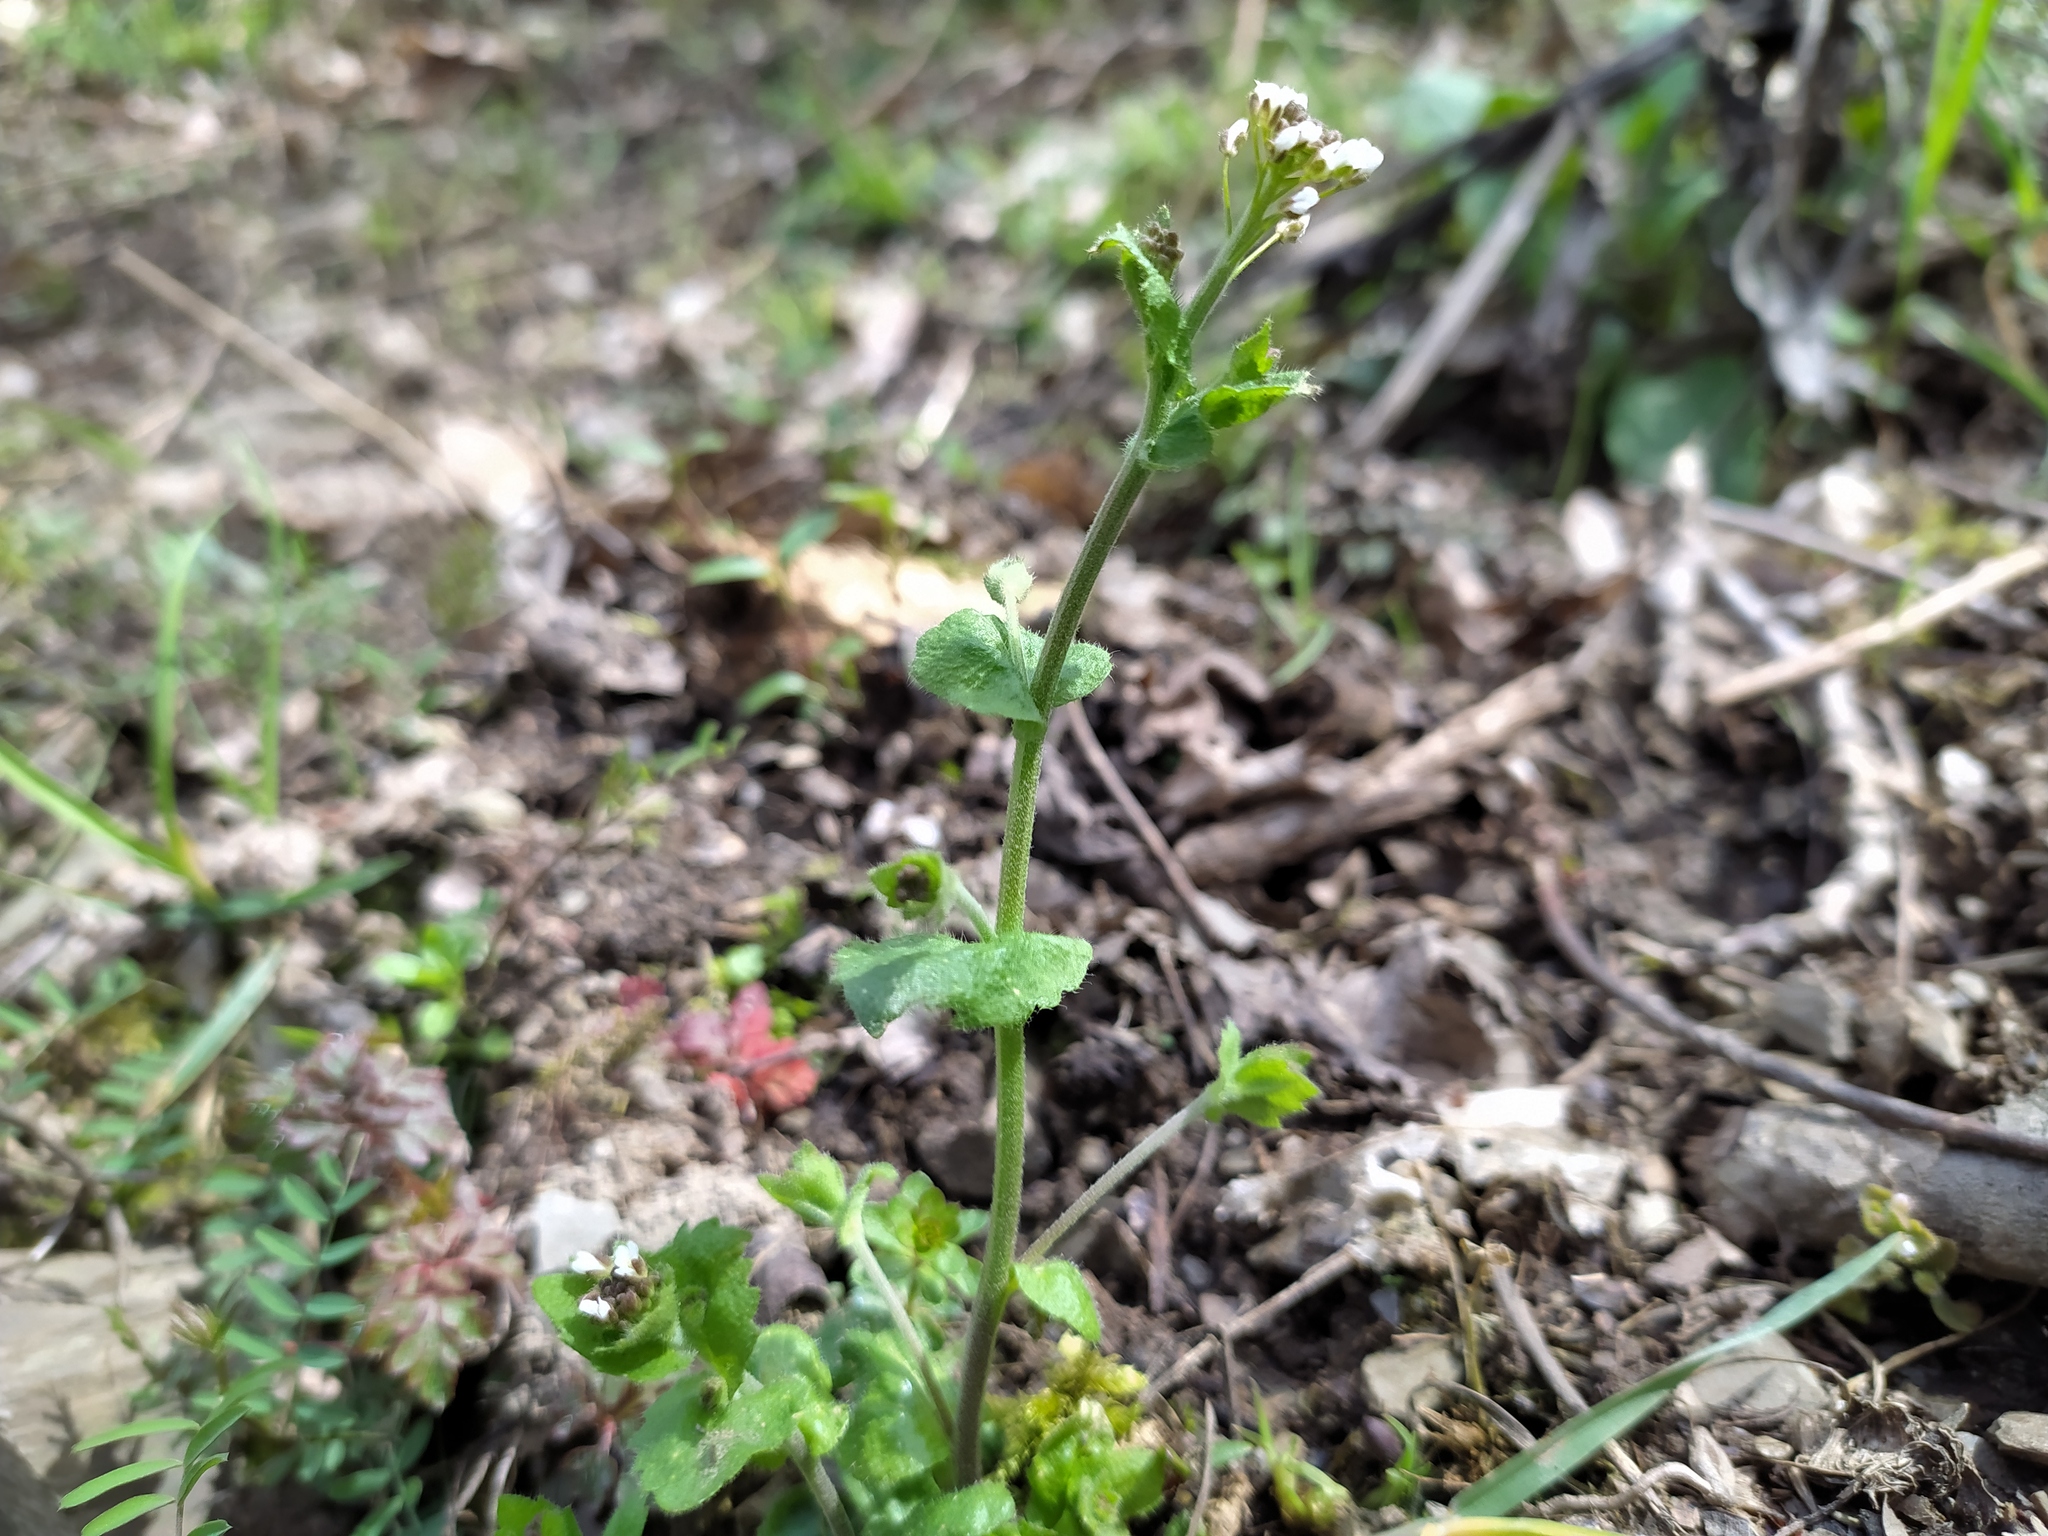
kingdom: Plantae
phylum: Tracheophyta
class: Magnoliopsida
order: Brassicales
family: Brassicaceae
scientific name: Brassicaceae
